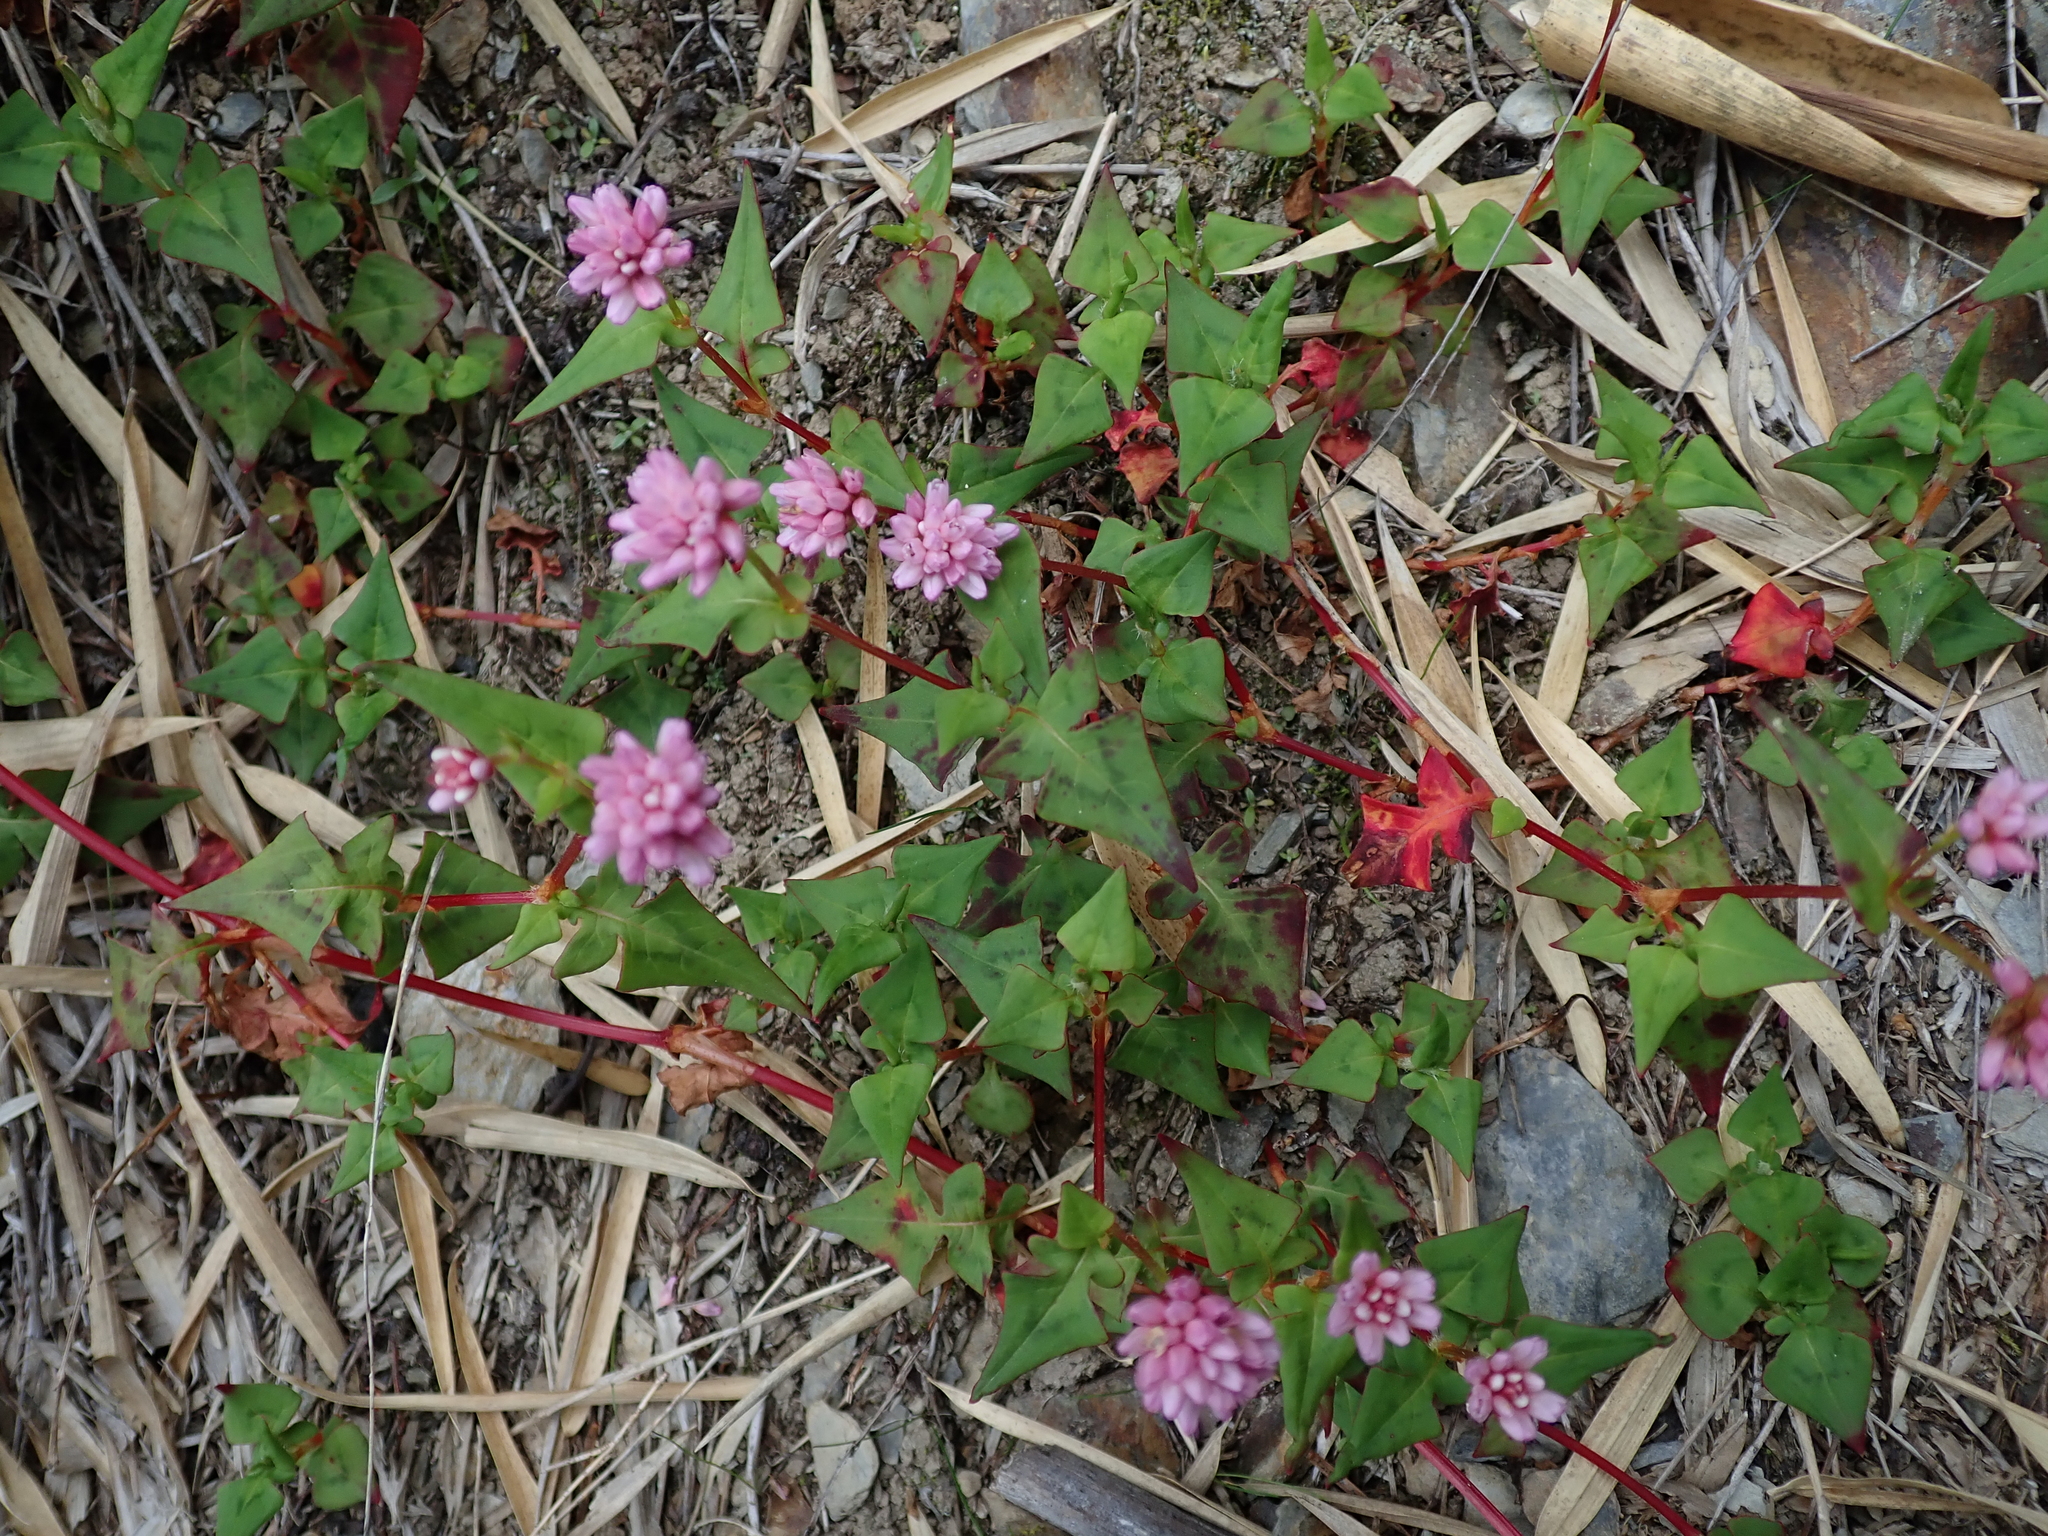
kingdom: Plantae
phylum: Tracheophyta
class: Magnoliopsida
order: Caryophyllales
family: Polygonaceae
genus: Persicaria
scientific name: Persicaria runcinata
